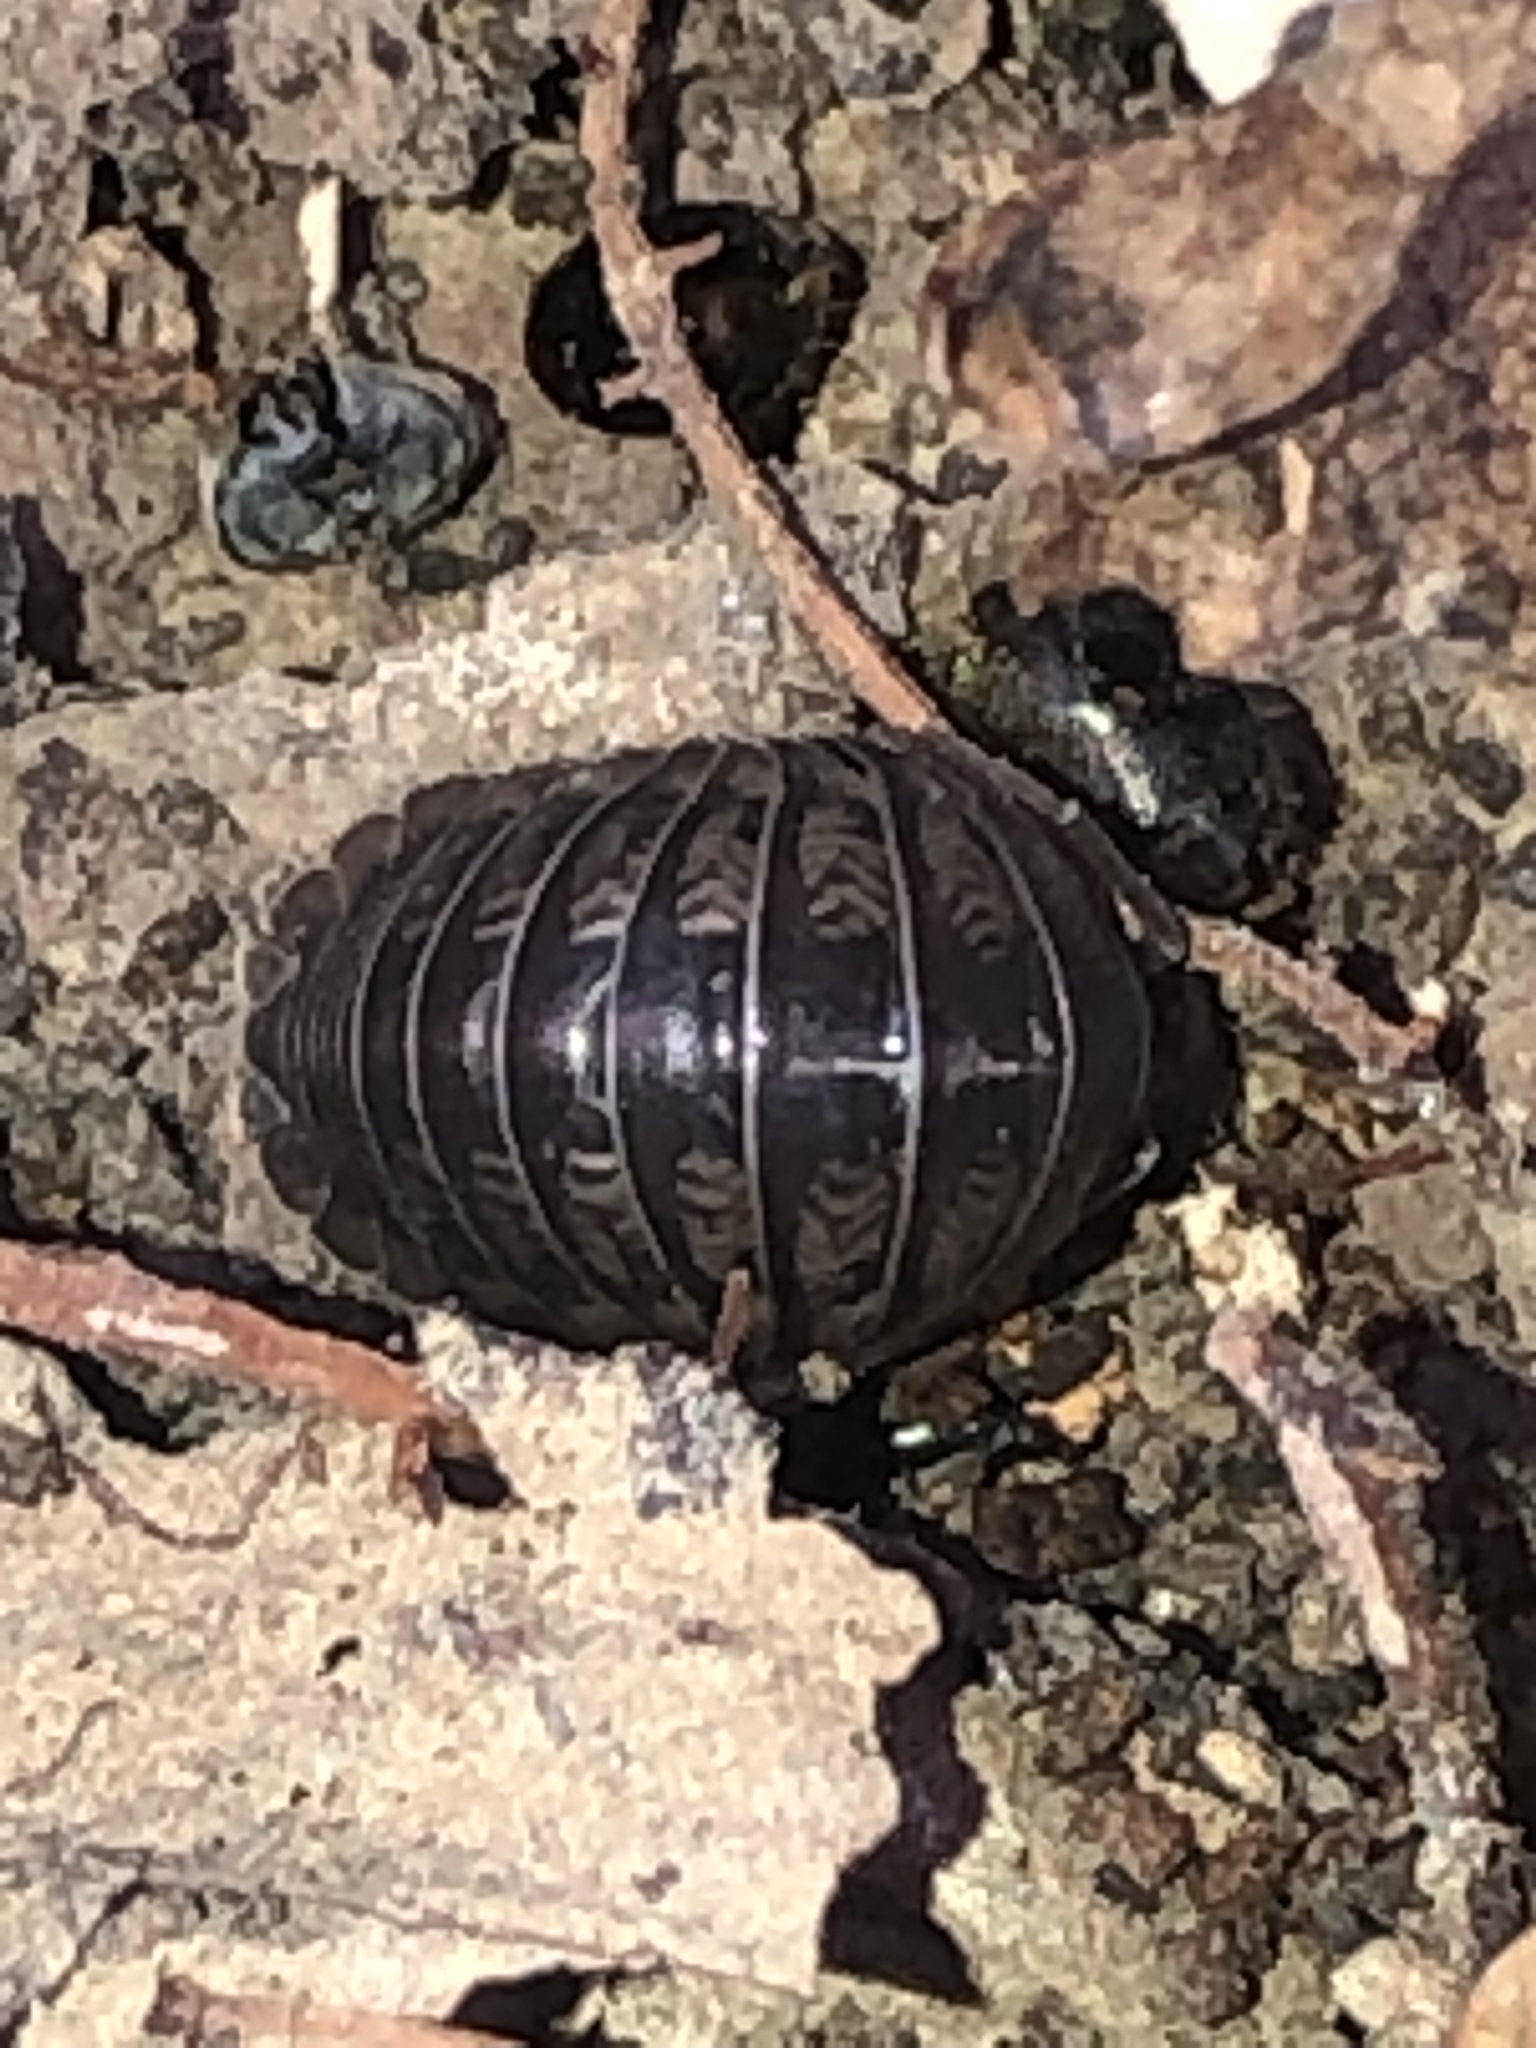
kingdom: Animalia
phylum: Arthropoda
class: Malacostraca
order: Isopoda
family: Armadillidiidae
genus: Armadillidium
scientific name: Armadillidium nasatum
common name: Isopod
